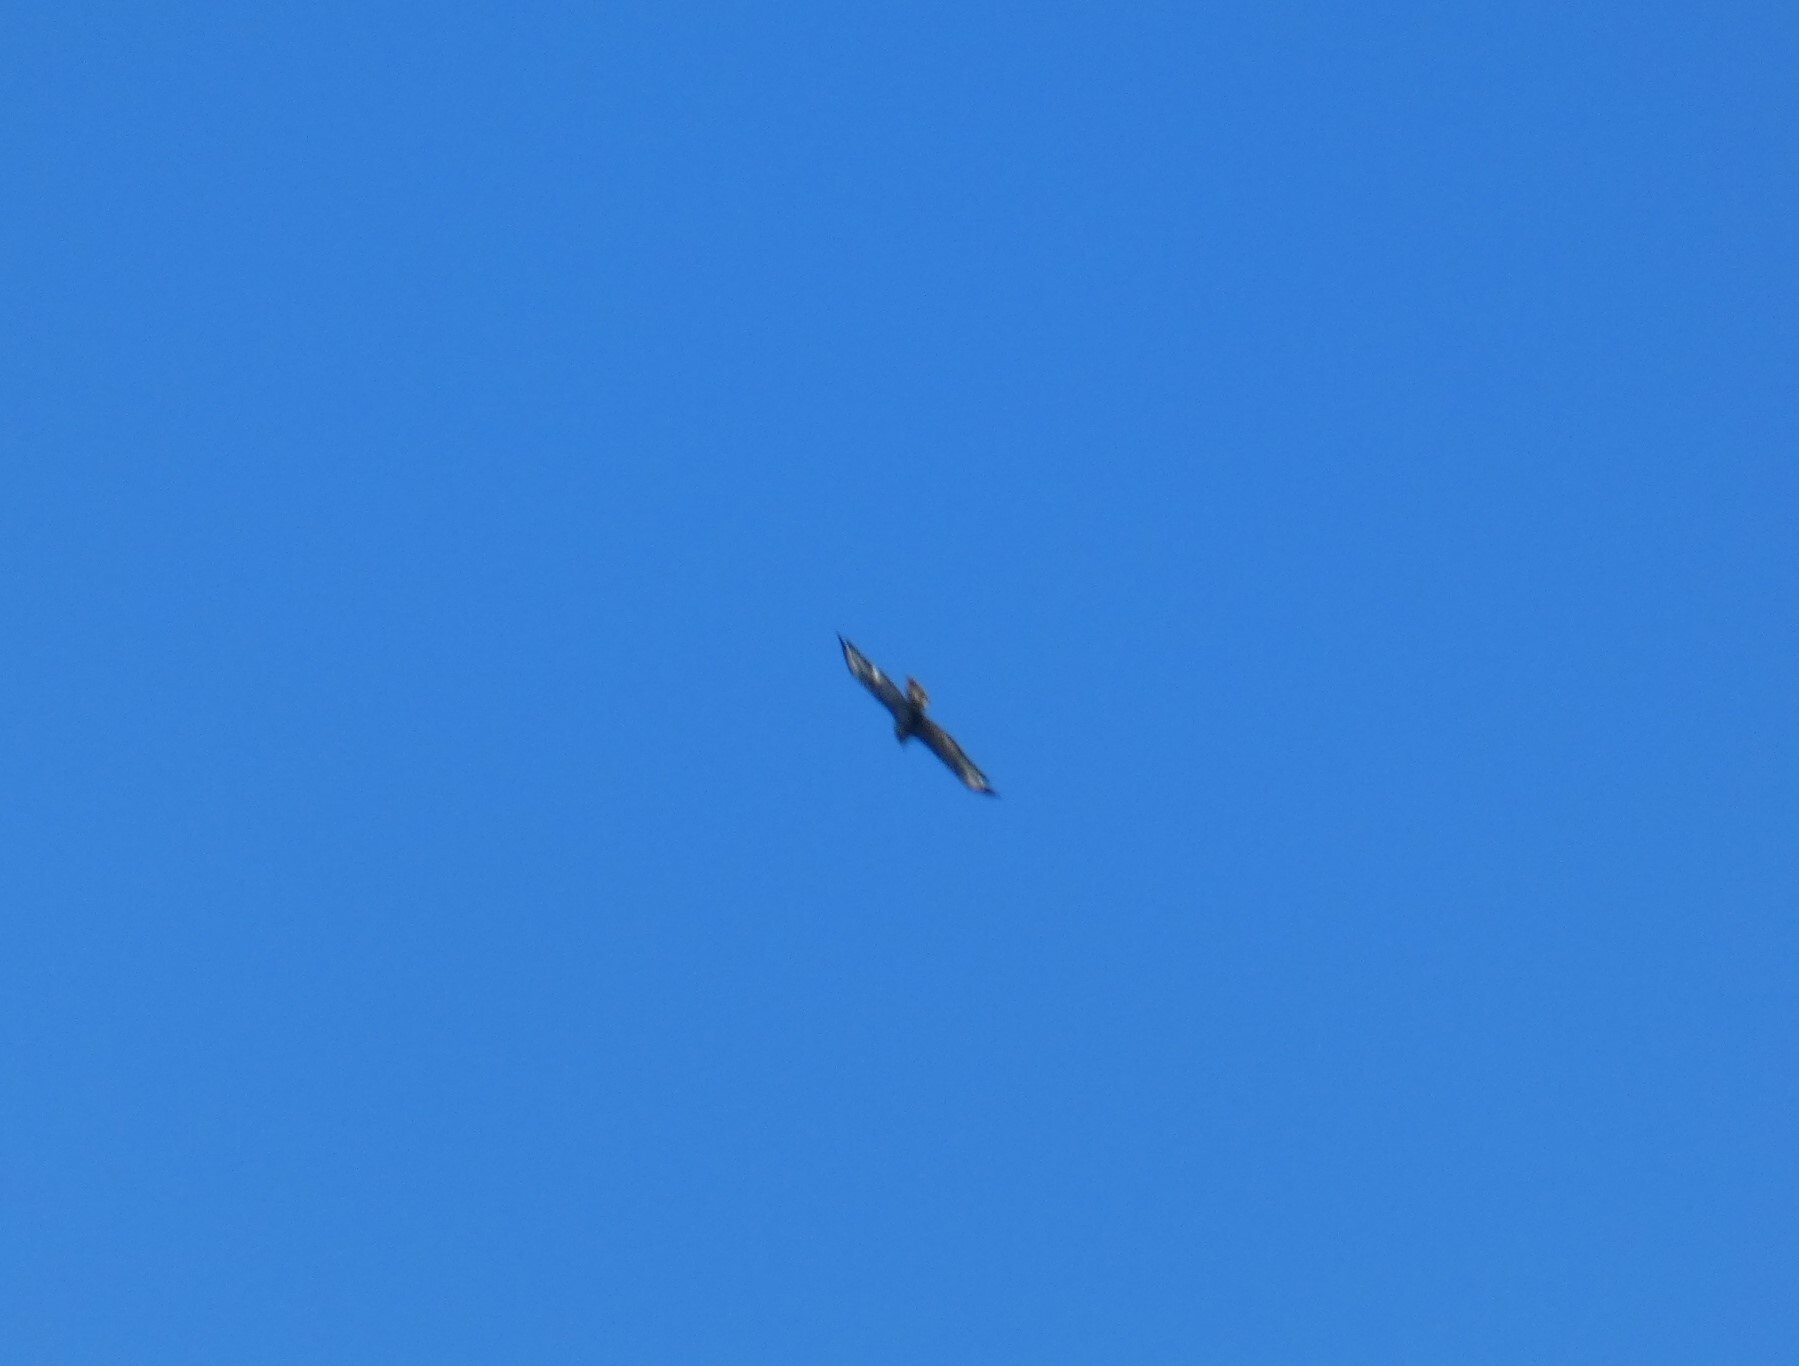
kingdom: Animalia
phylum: Chordata
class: Aves
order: Accipitriformes
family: Accipitridae
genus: Buteo
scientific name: Buteo buteo
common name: Common buzzard
